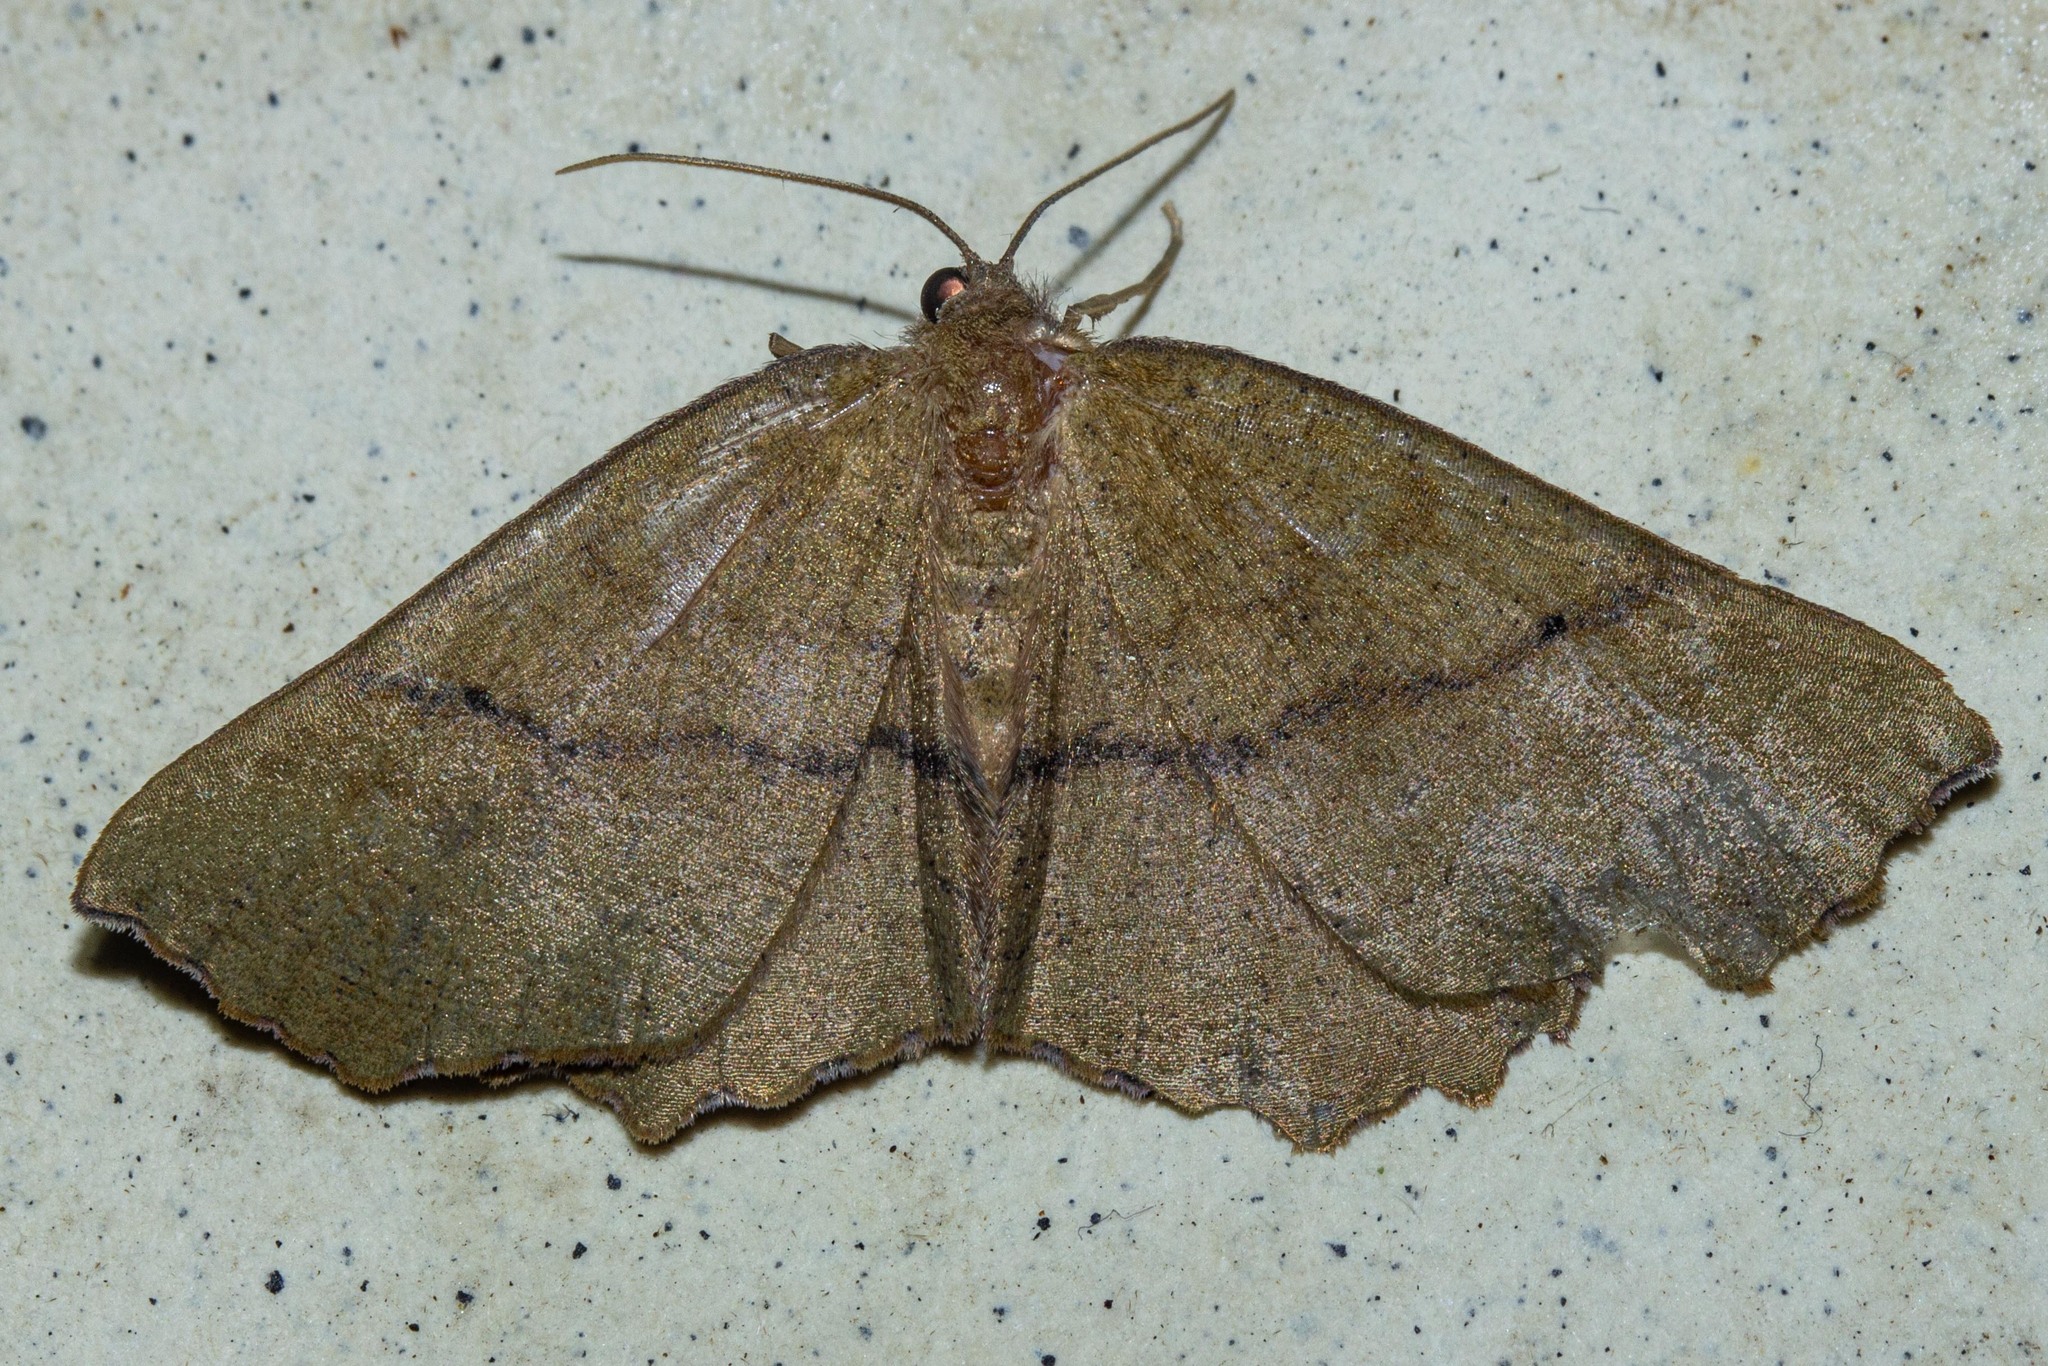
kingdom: Animalia
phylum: Arthropoda
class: Insecta
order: Lepidoptera
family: Geometridae
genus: Xyridacma
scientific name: Xyridacma ustaria
